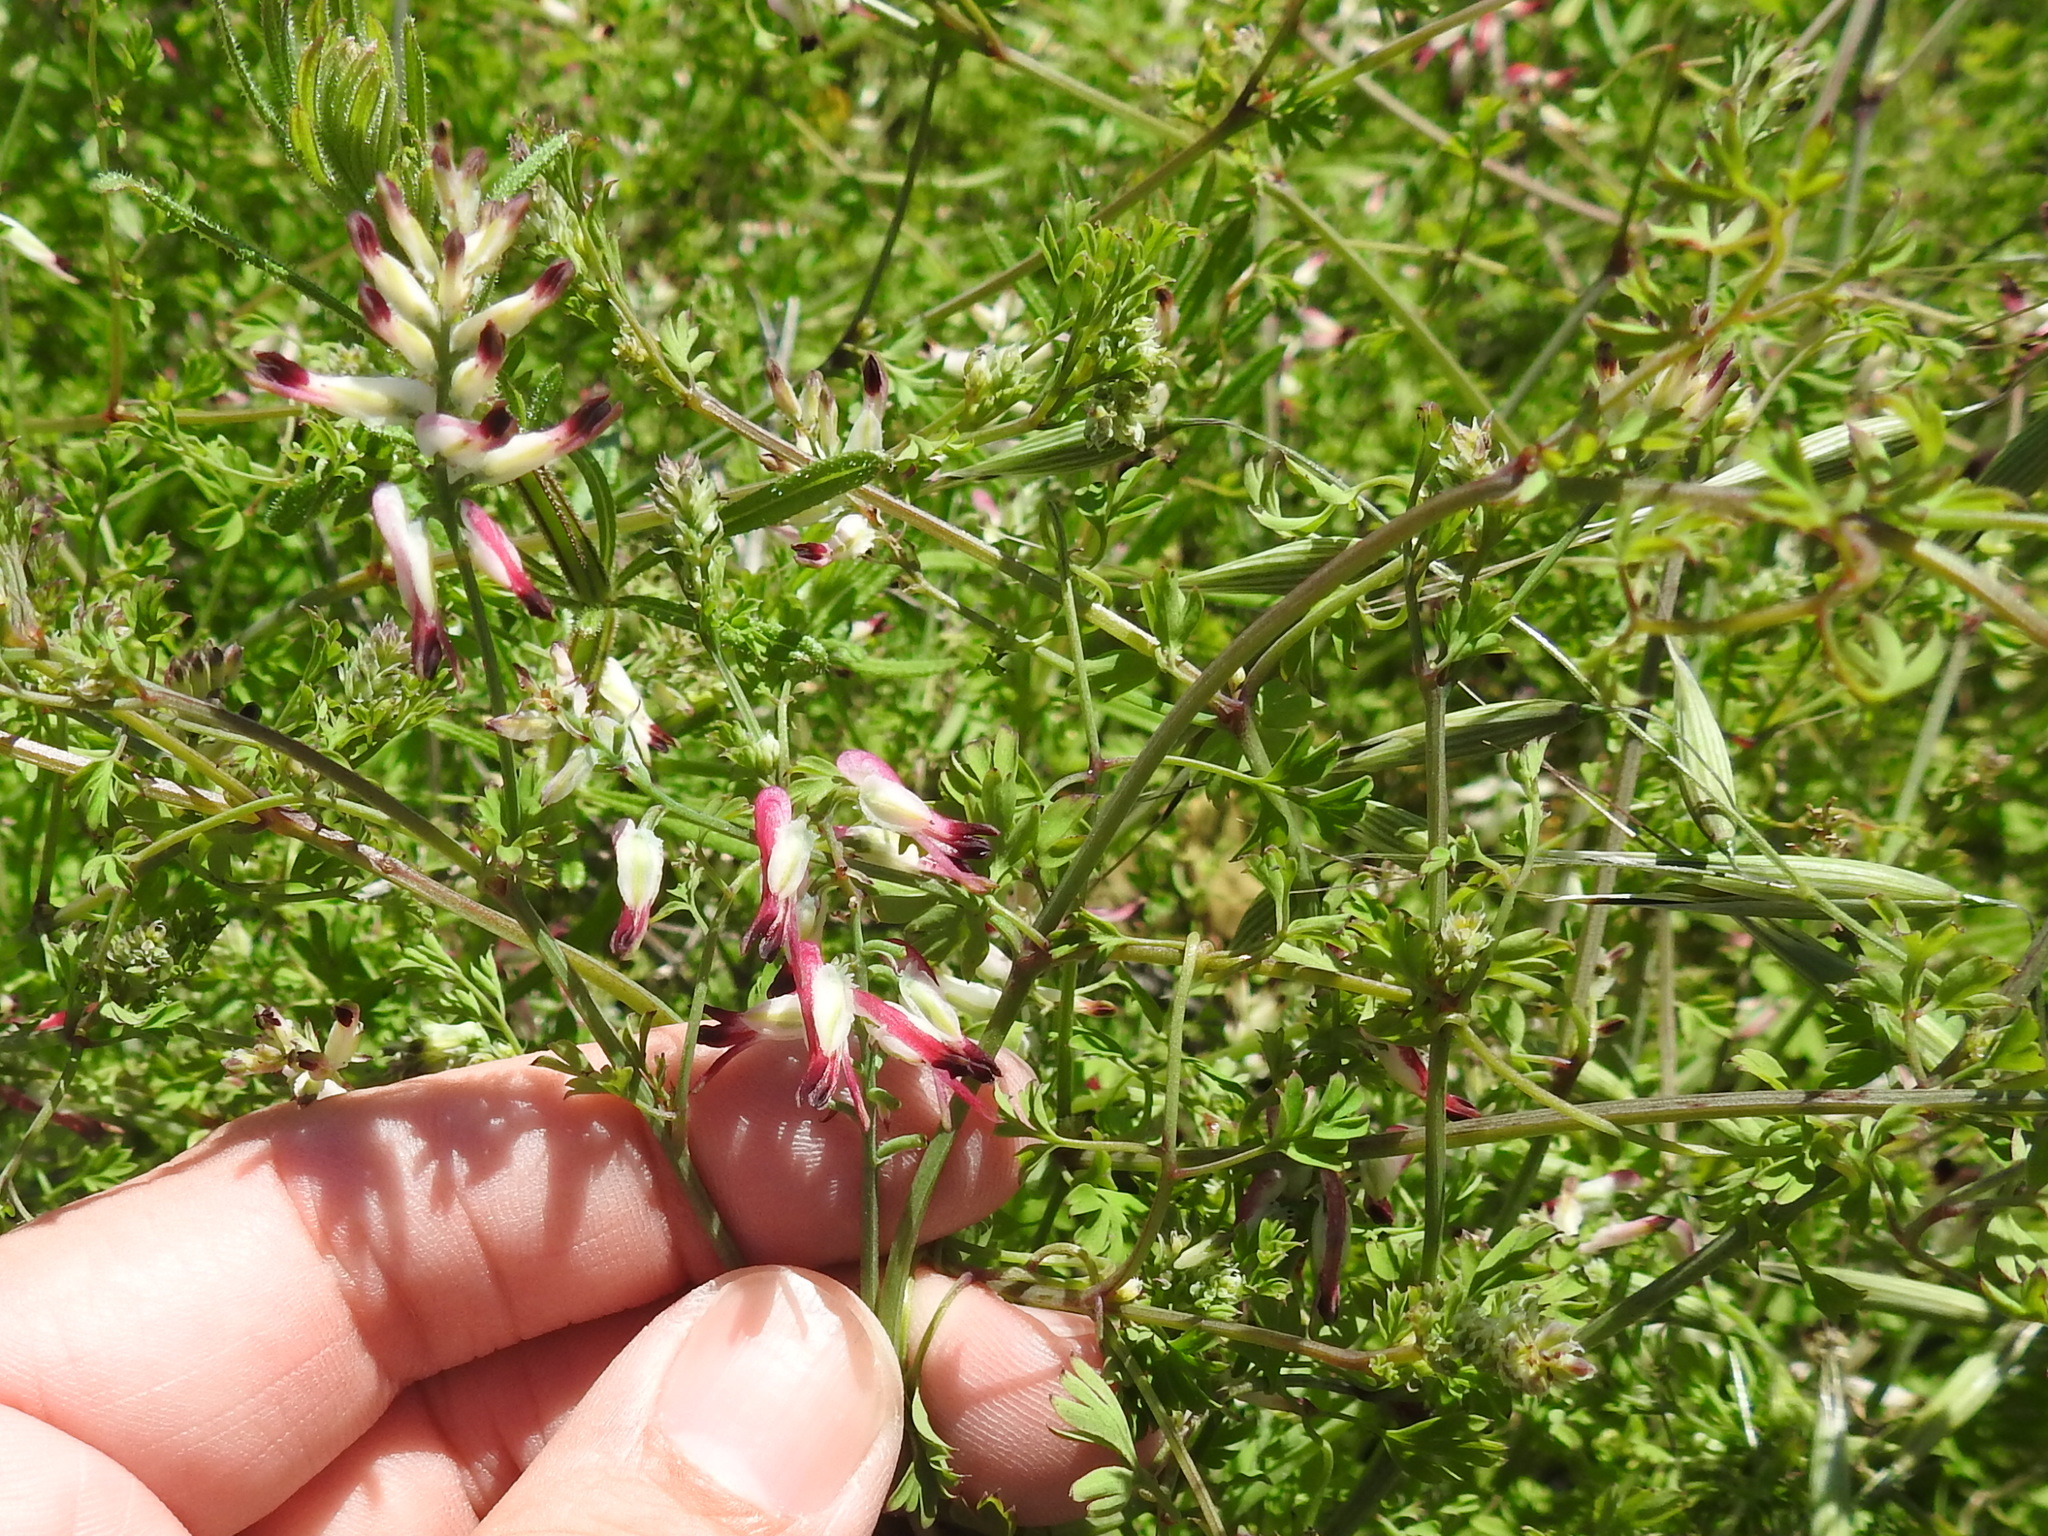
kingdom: Plantae
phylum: Tracheophyta
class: Magnoliopsida
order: Ranunculales
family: Papaveraceae
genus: Fumaria
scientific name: Fumaria capreolata
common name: White ramping-fumitory
